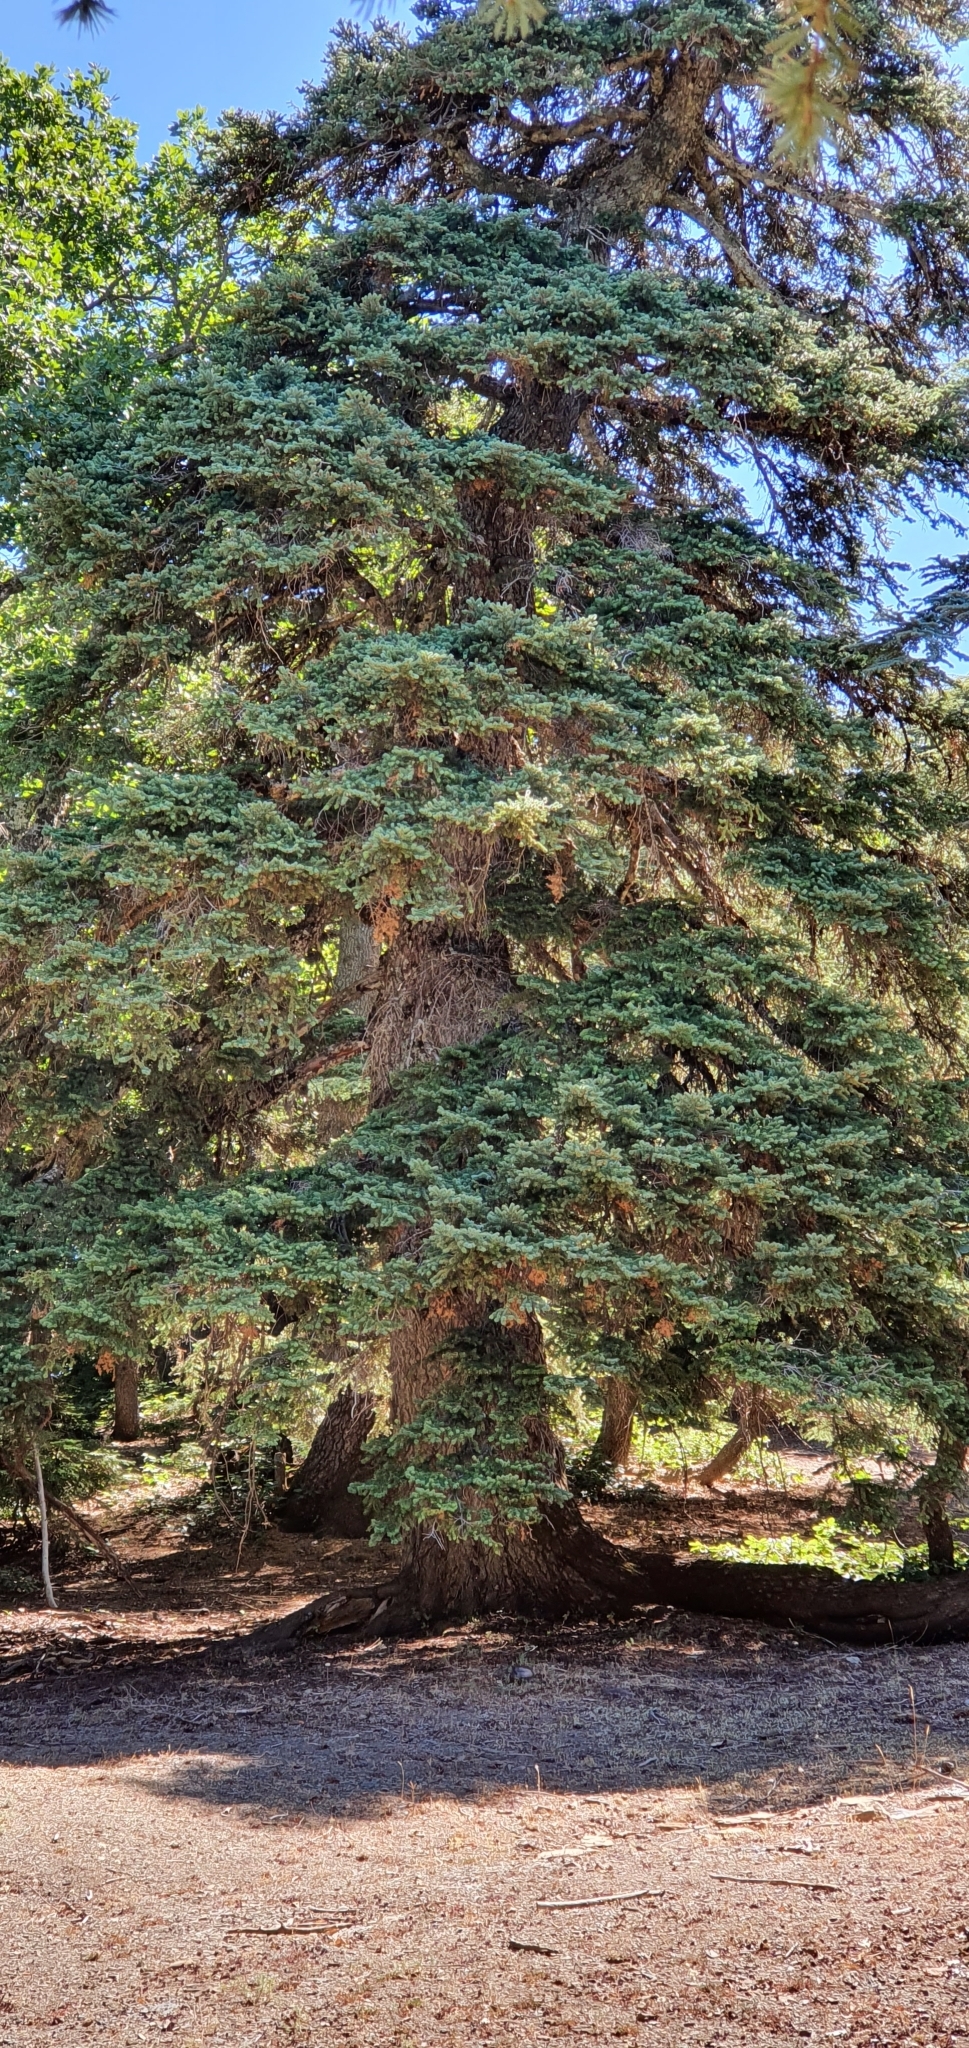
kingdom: Plantae
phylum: Tracheophyta
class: Pinopsida
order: Pinales
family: Pinaceae
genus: Abies
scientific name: Abies numidica
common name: Algerian fir
